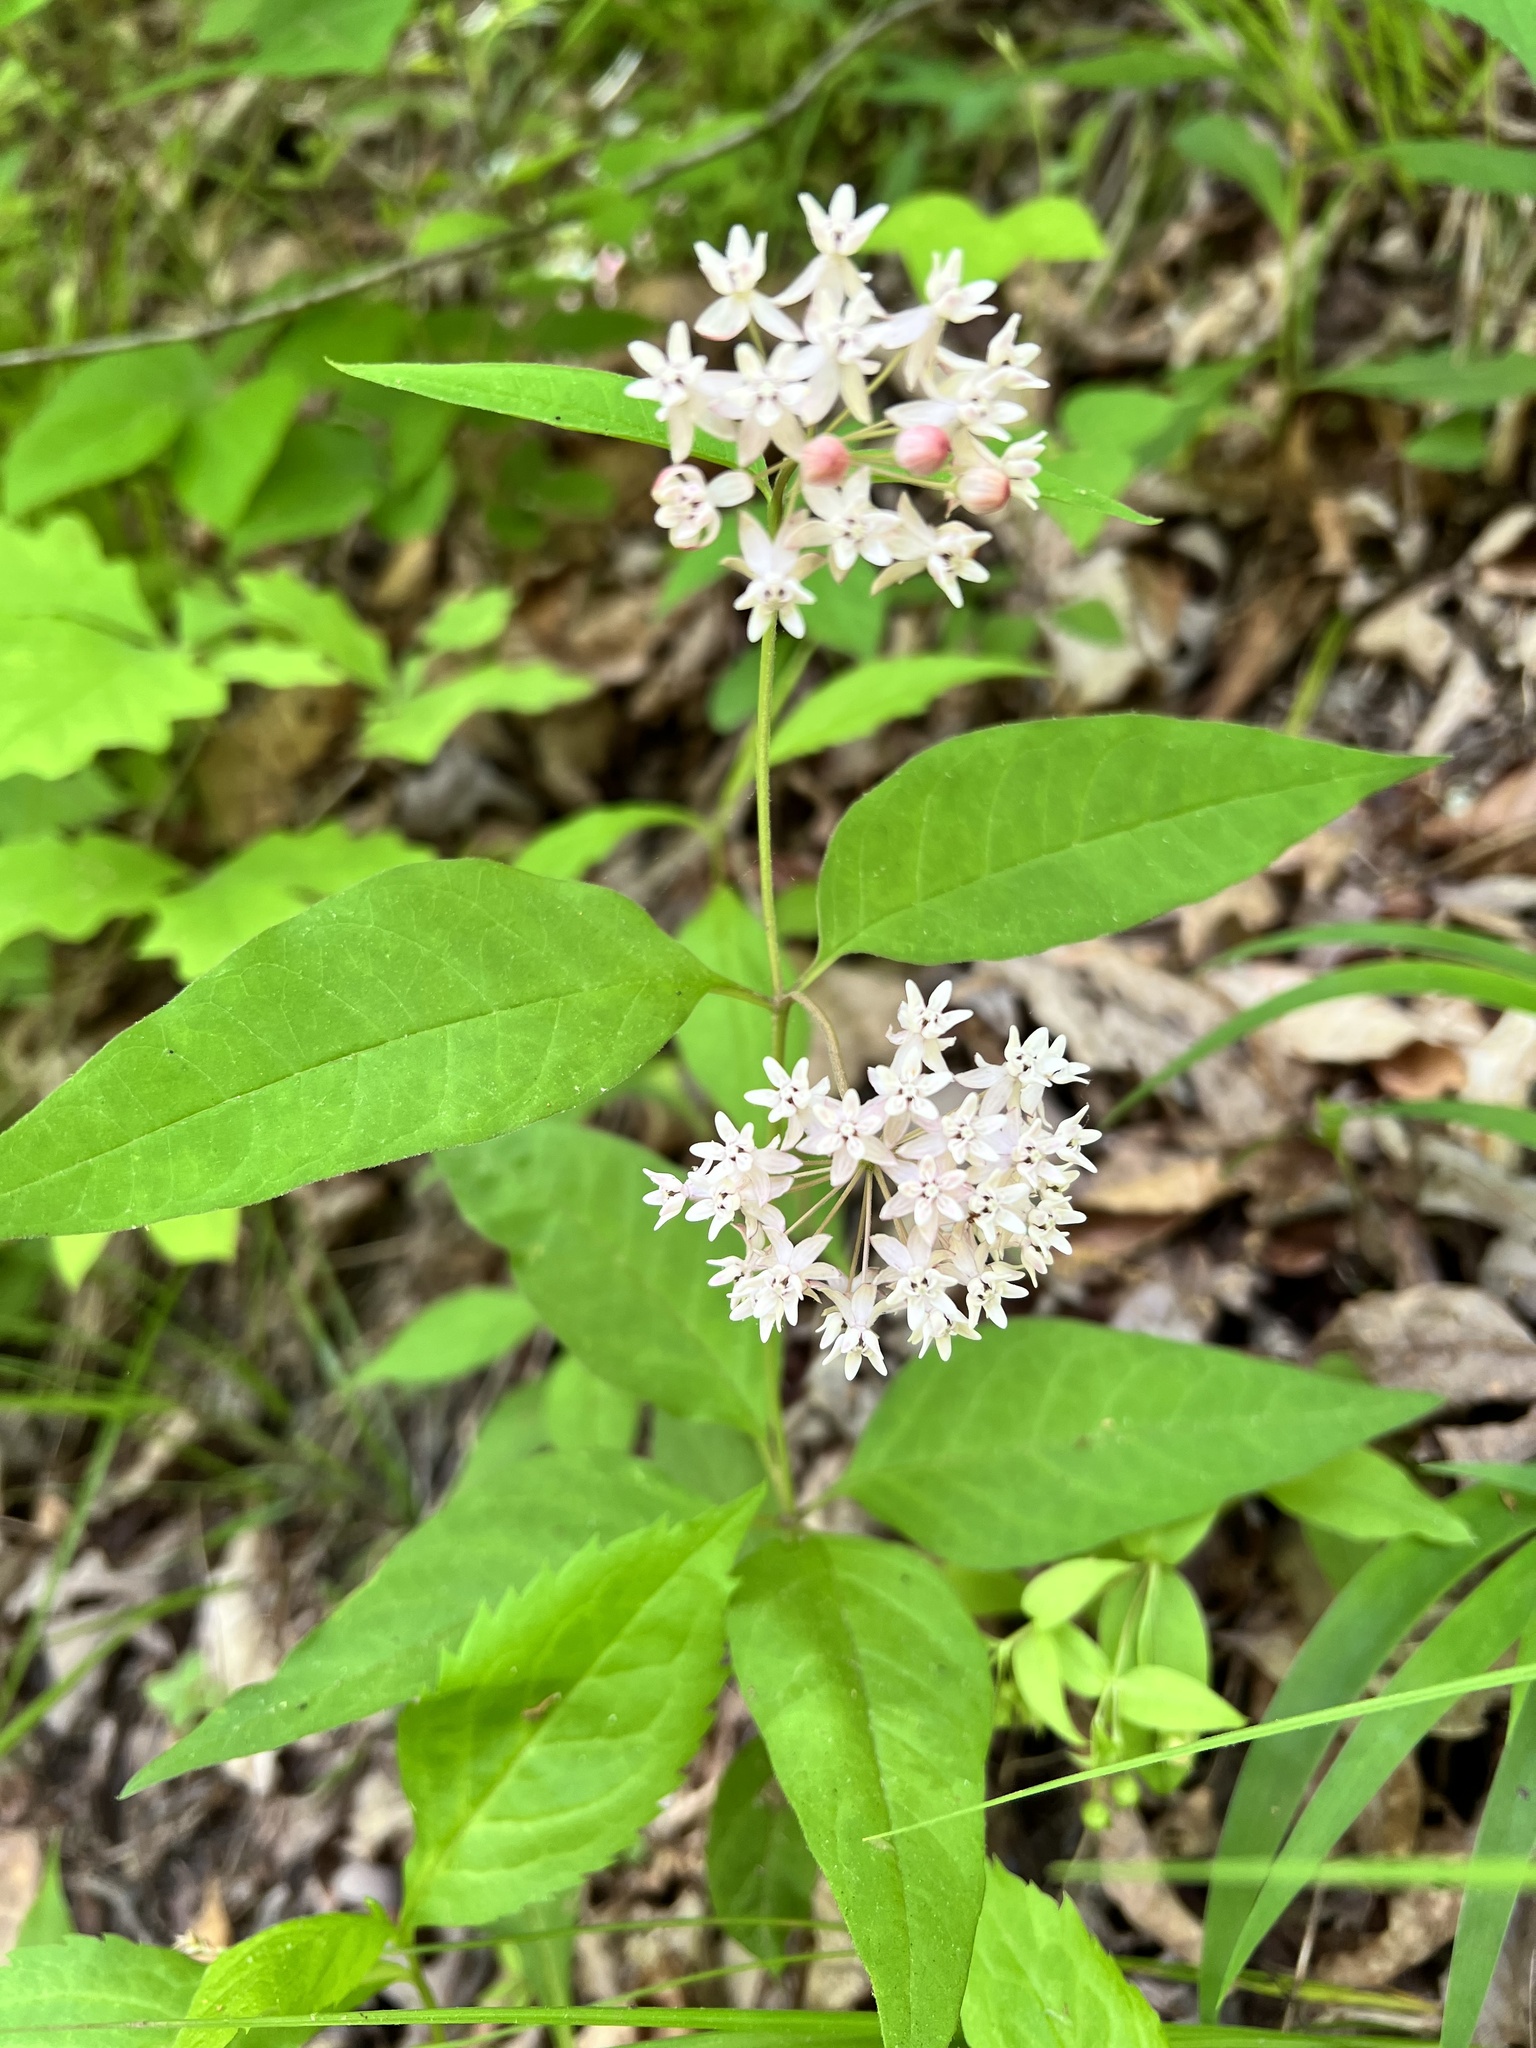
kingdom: Plantae
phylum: Tracheophyta
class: Magnoliopsida
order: Gentianales
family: Apocynaceae
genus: Asclepias
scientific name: Asclepias quadrifolia
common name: Whorled milkweed
